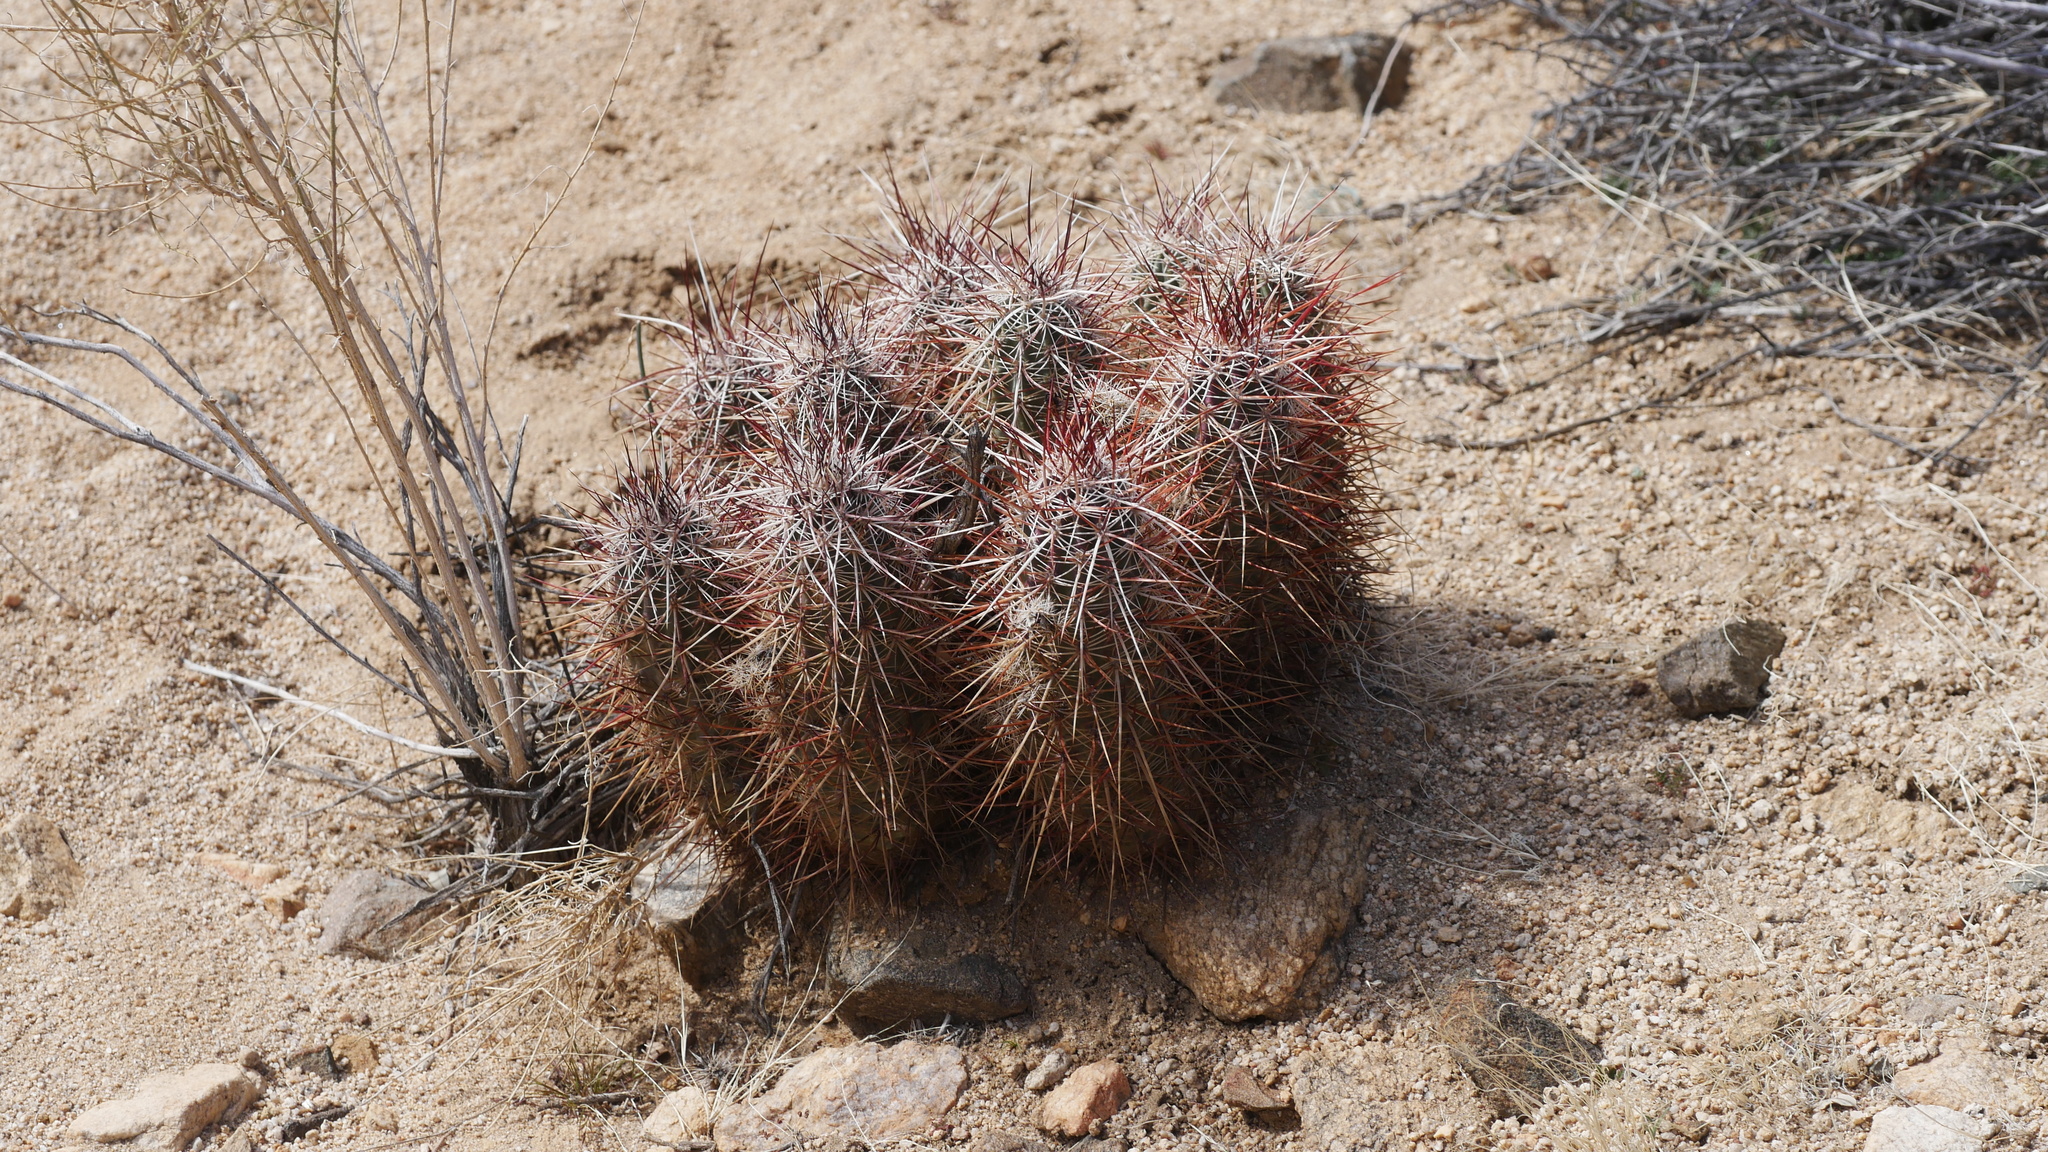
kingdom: Plantae
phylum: Tracheophyta
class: Magnoliopsida
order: Caryophyllales
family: Cactaceae
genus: Echinocereus
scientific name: Echinocereus engelmannii
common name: Engelmann's hedgehog cactus
